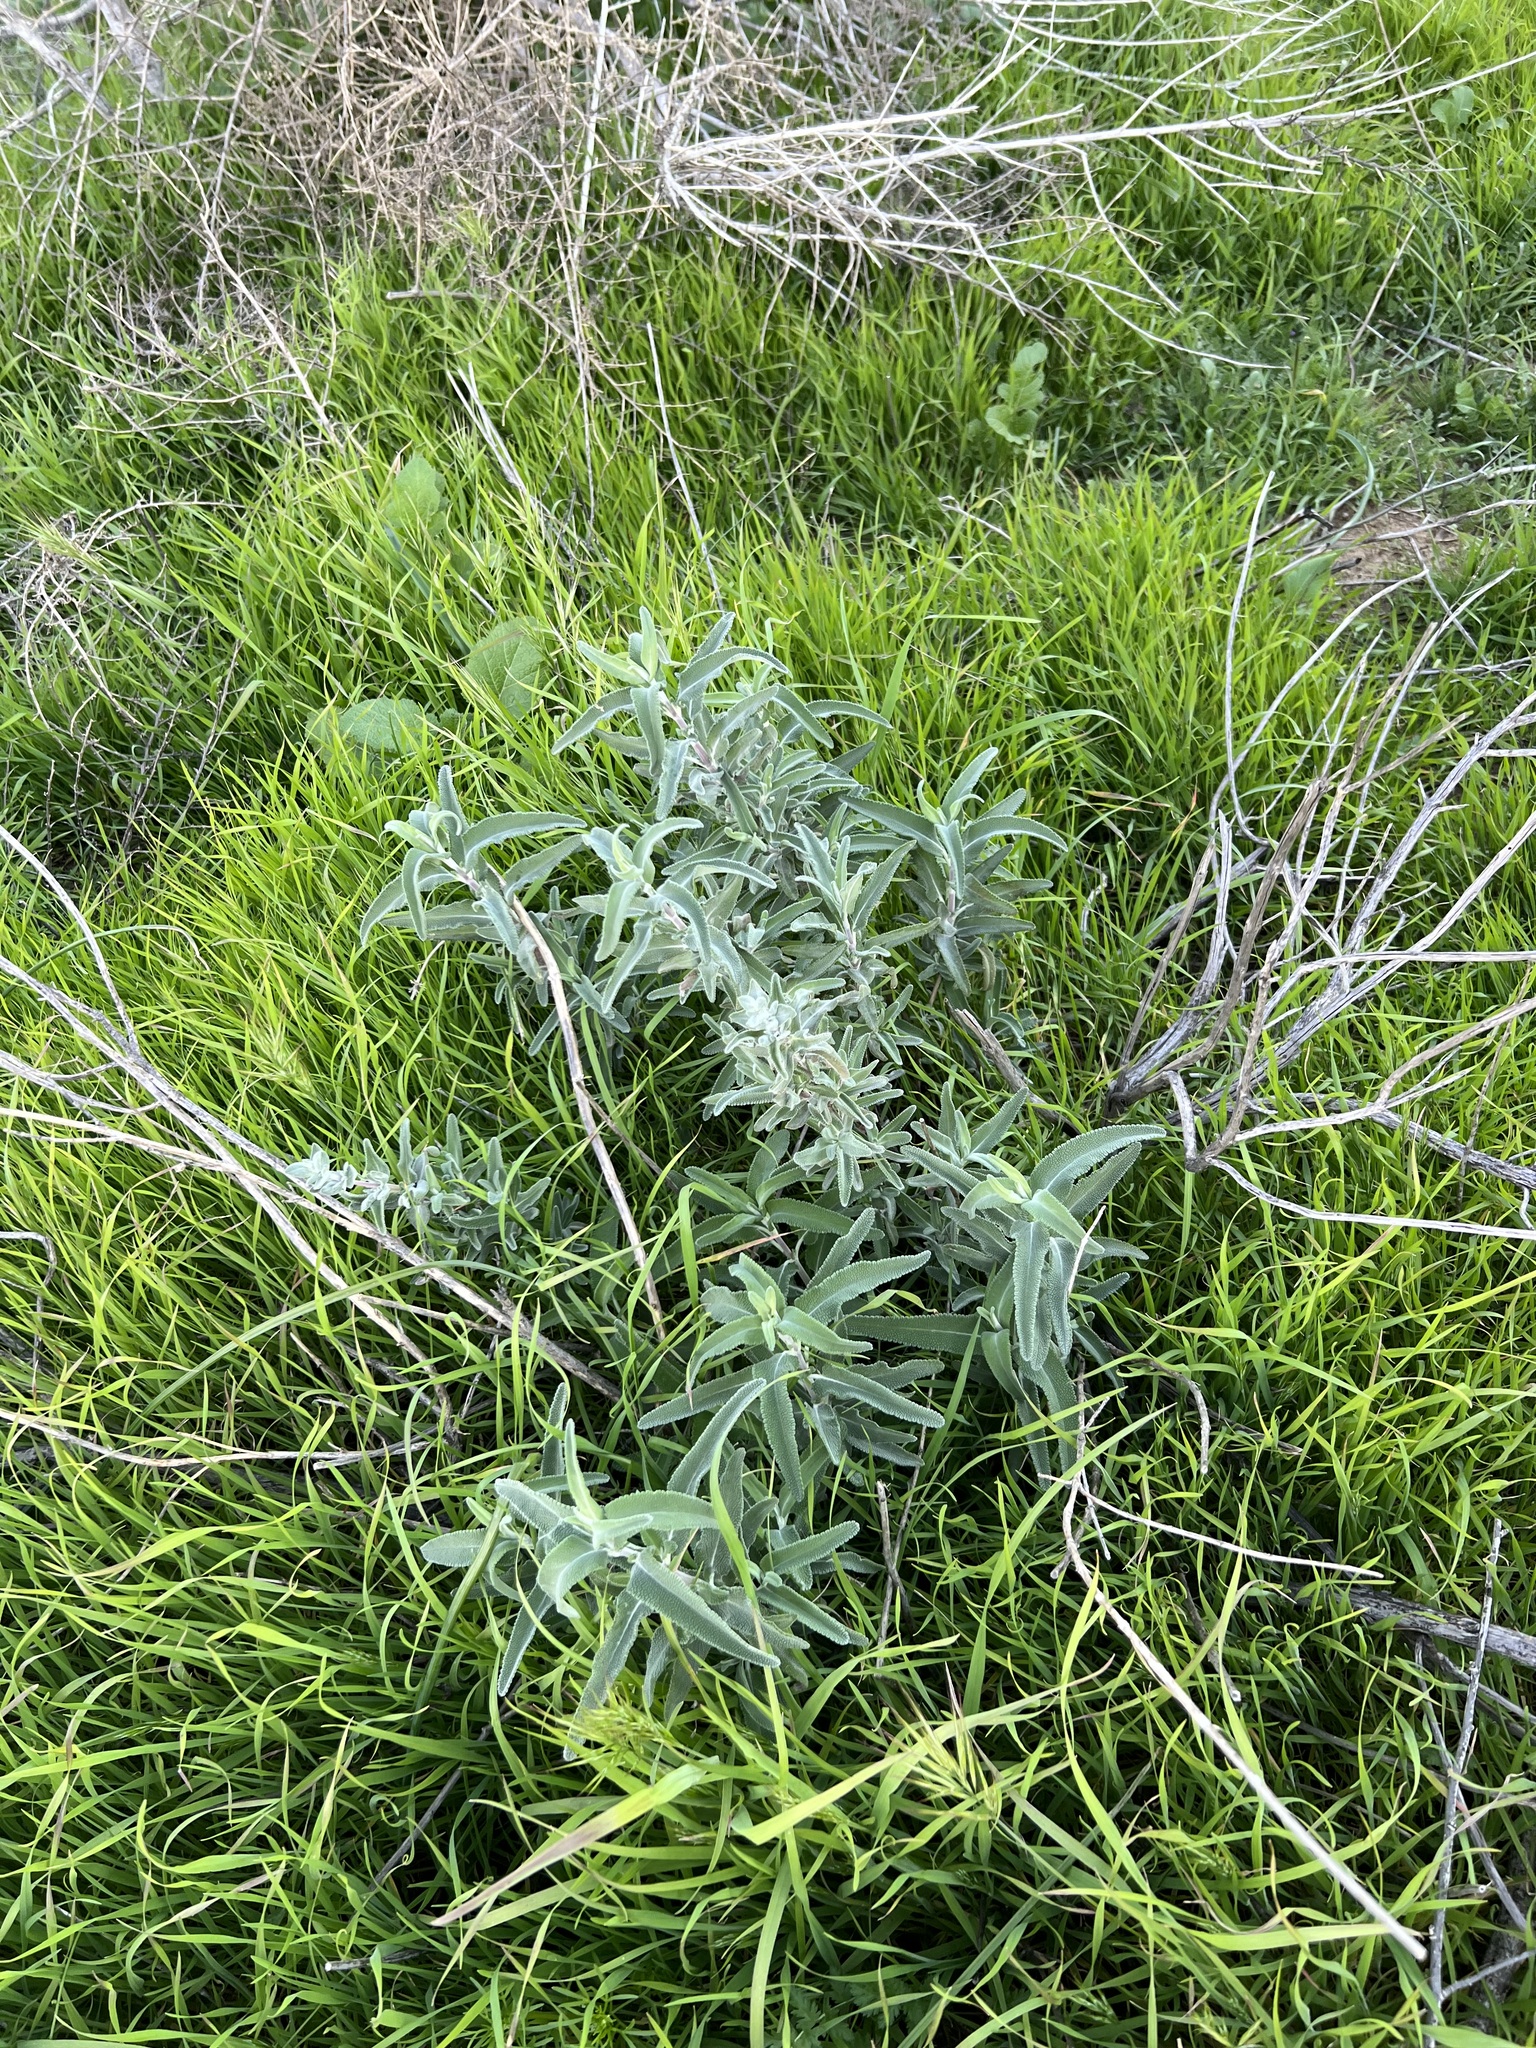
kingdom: Plantae
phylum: Tracheophyta
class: Magnoliopsida
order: Lamiales
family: Lamiaceae
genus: Salvia
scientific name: Salvia leucophylla
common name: Purple sage
